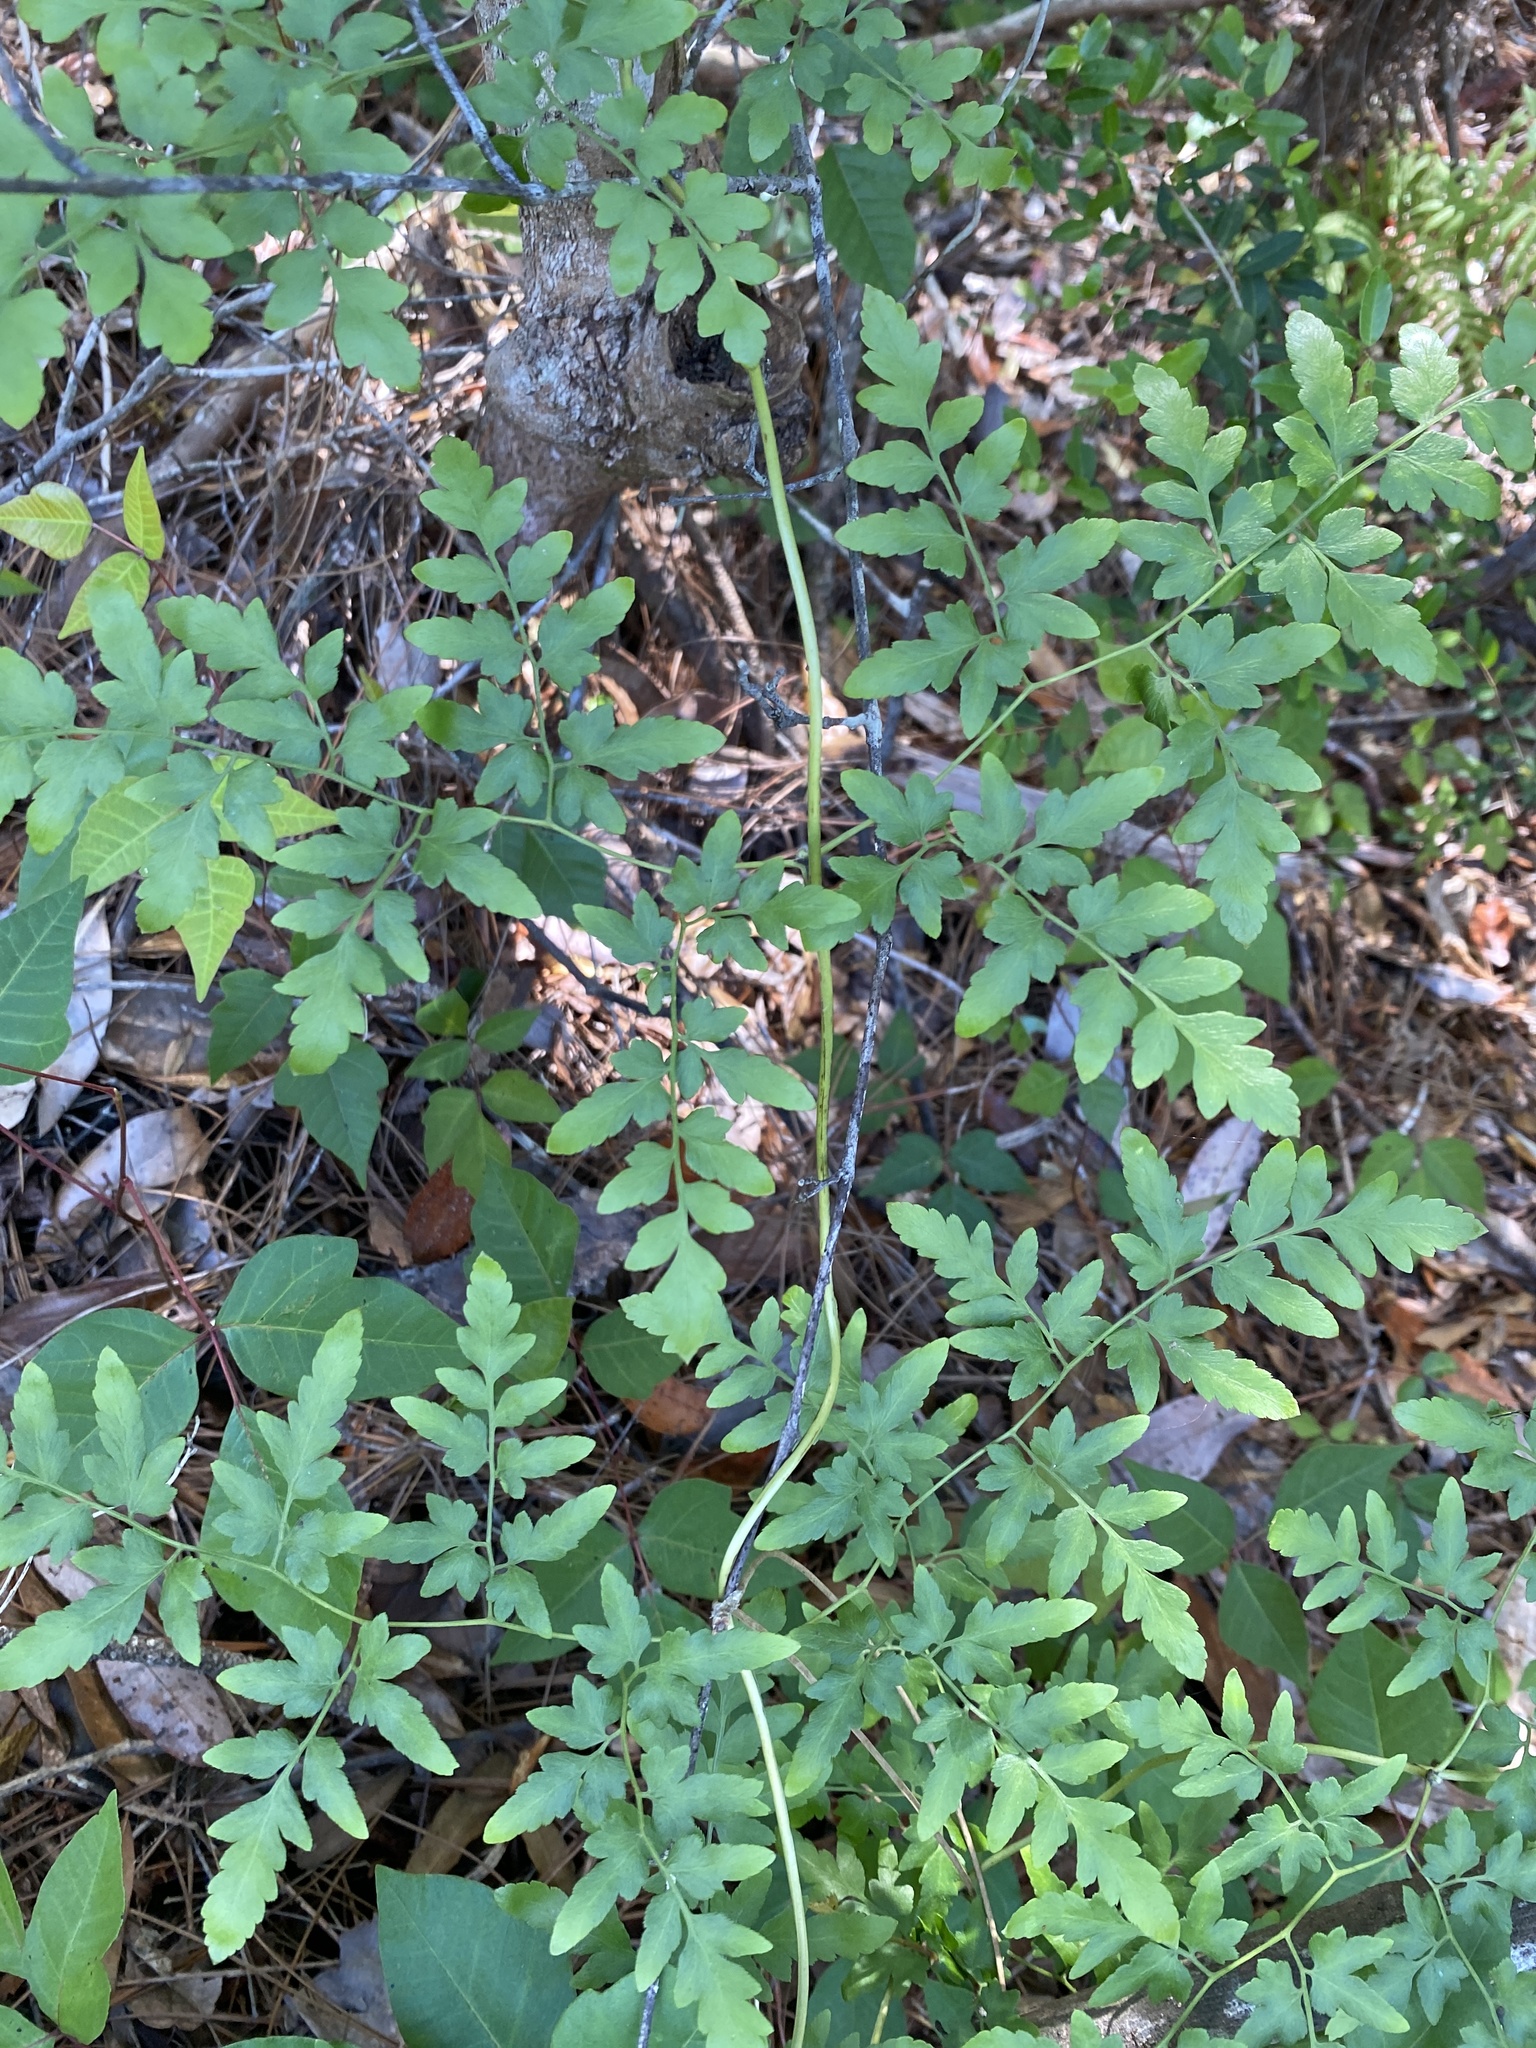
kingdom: Plantae
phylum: Tracheophyta
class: Polypodiopsida
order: Schizaeales
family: Lygodiaceae
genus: Lygodium
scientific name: Lygodium japonicum
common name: Japanese climbing fern
